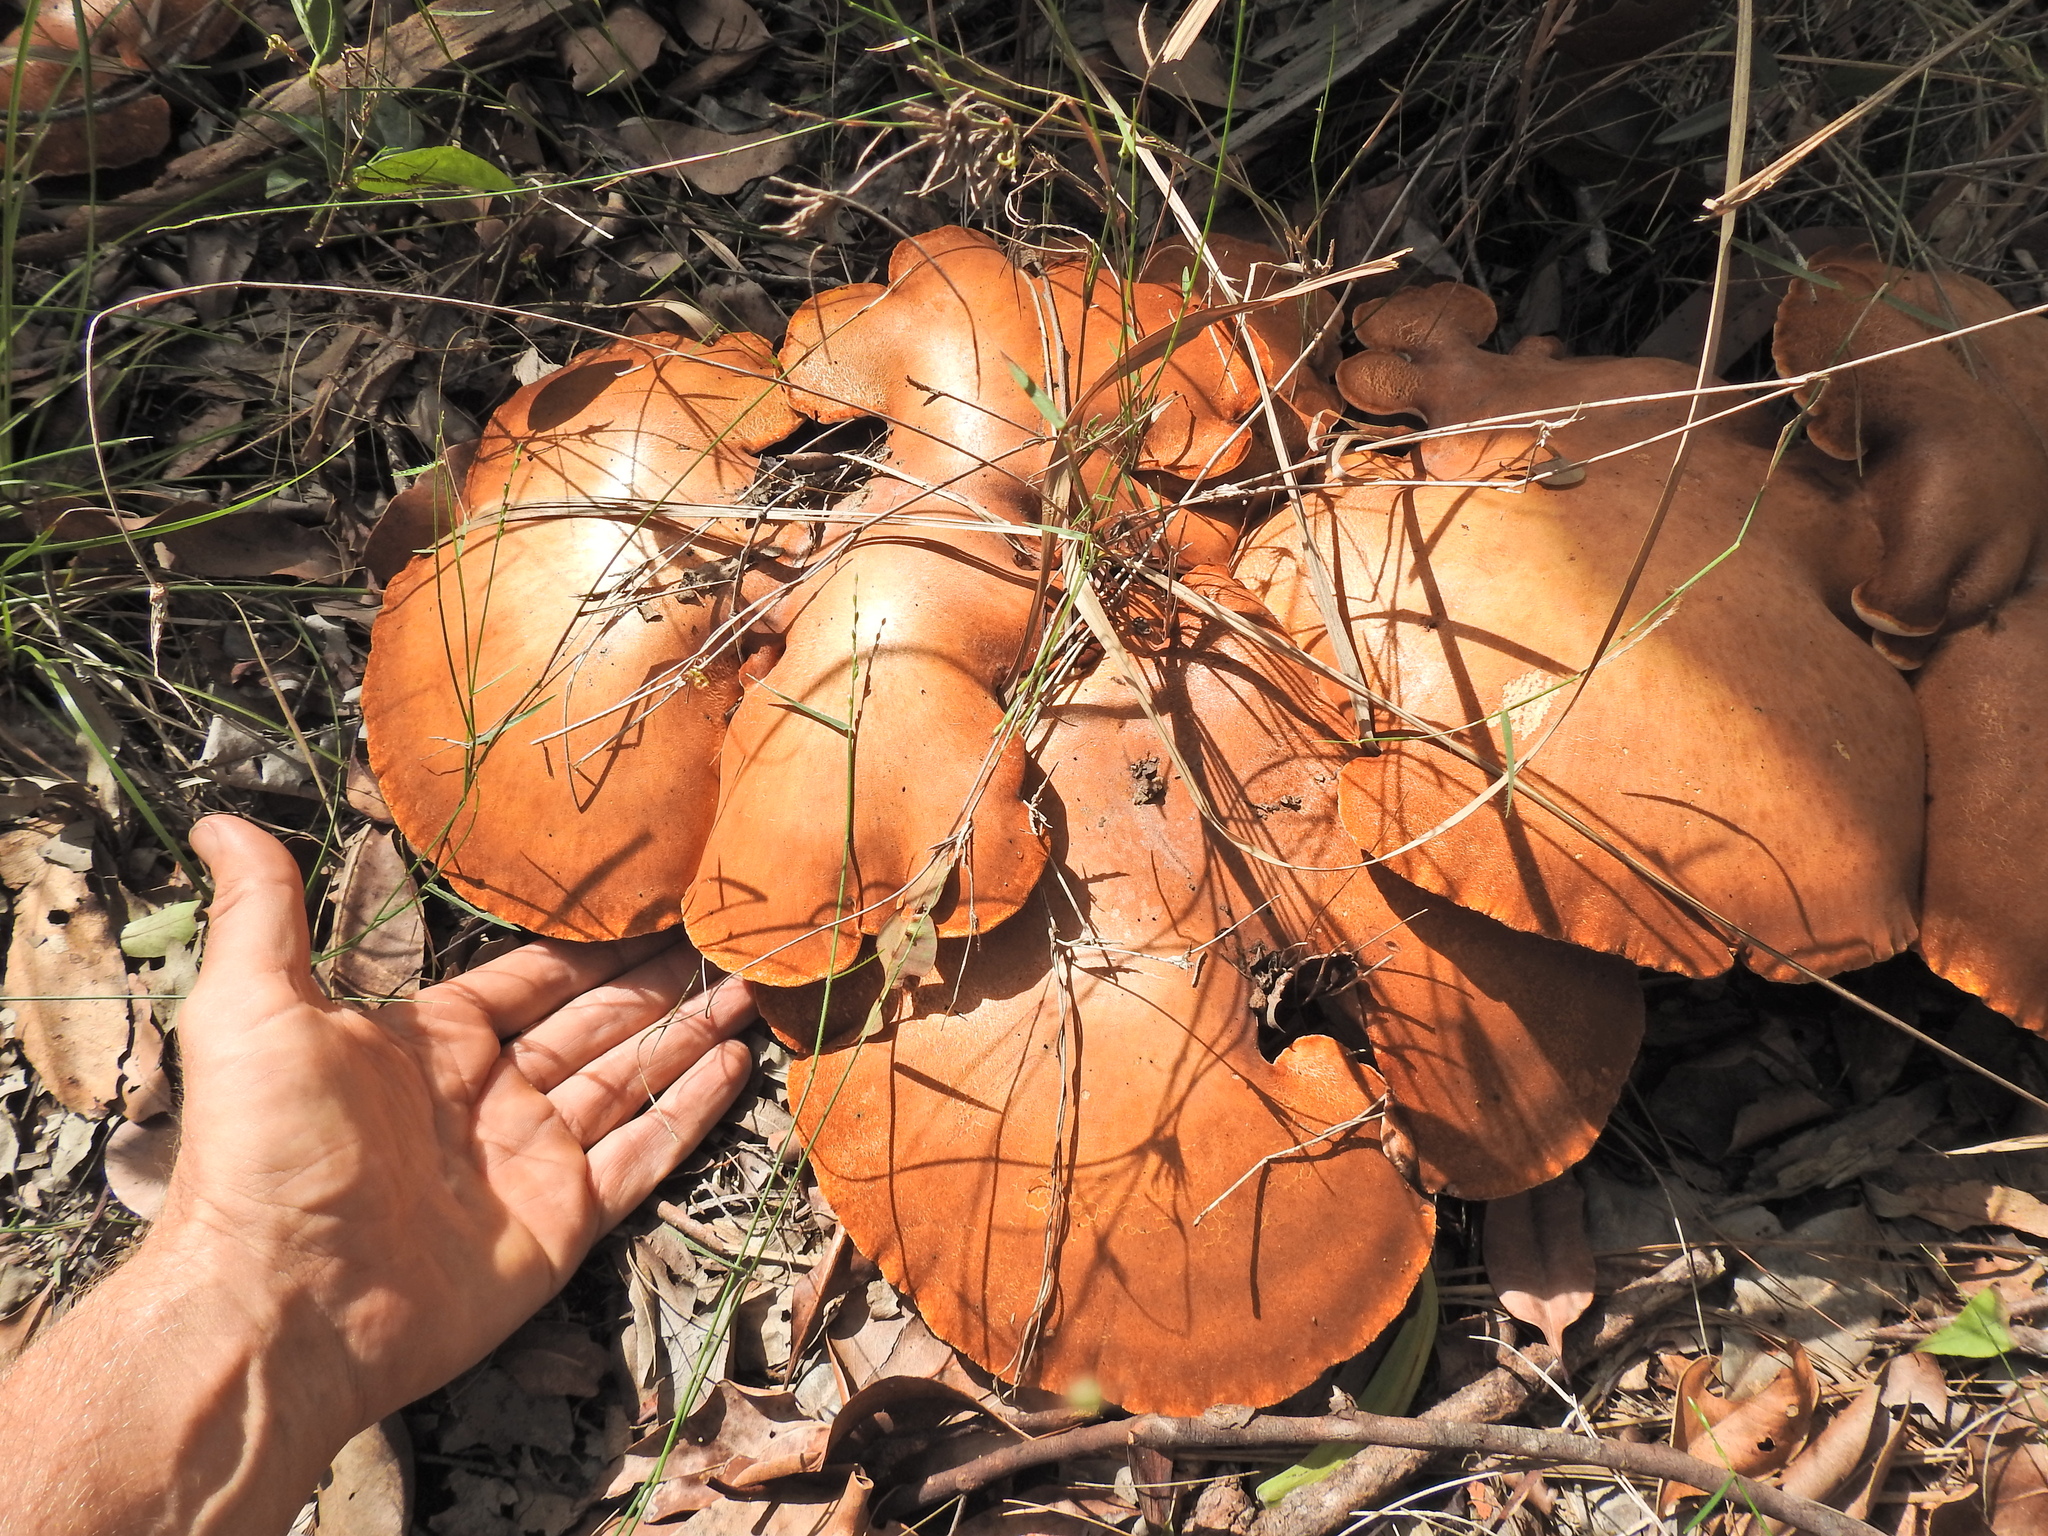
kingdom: Fungi
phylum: Basidiomycota
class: Agaricomycetes
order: Polyporales
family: Fomitopsidaceae
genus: Fomitopsis
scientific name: Fomitopsis
